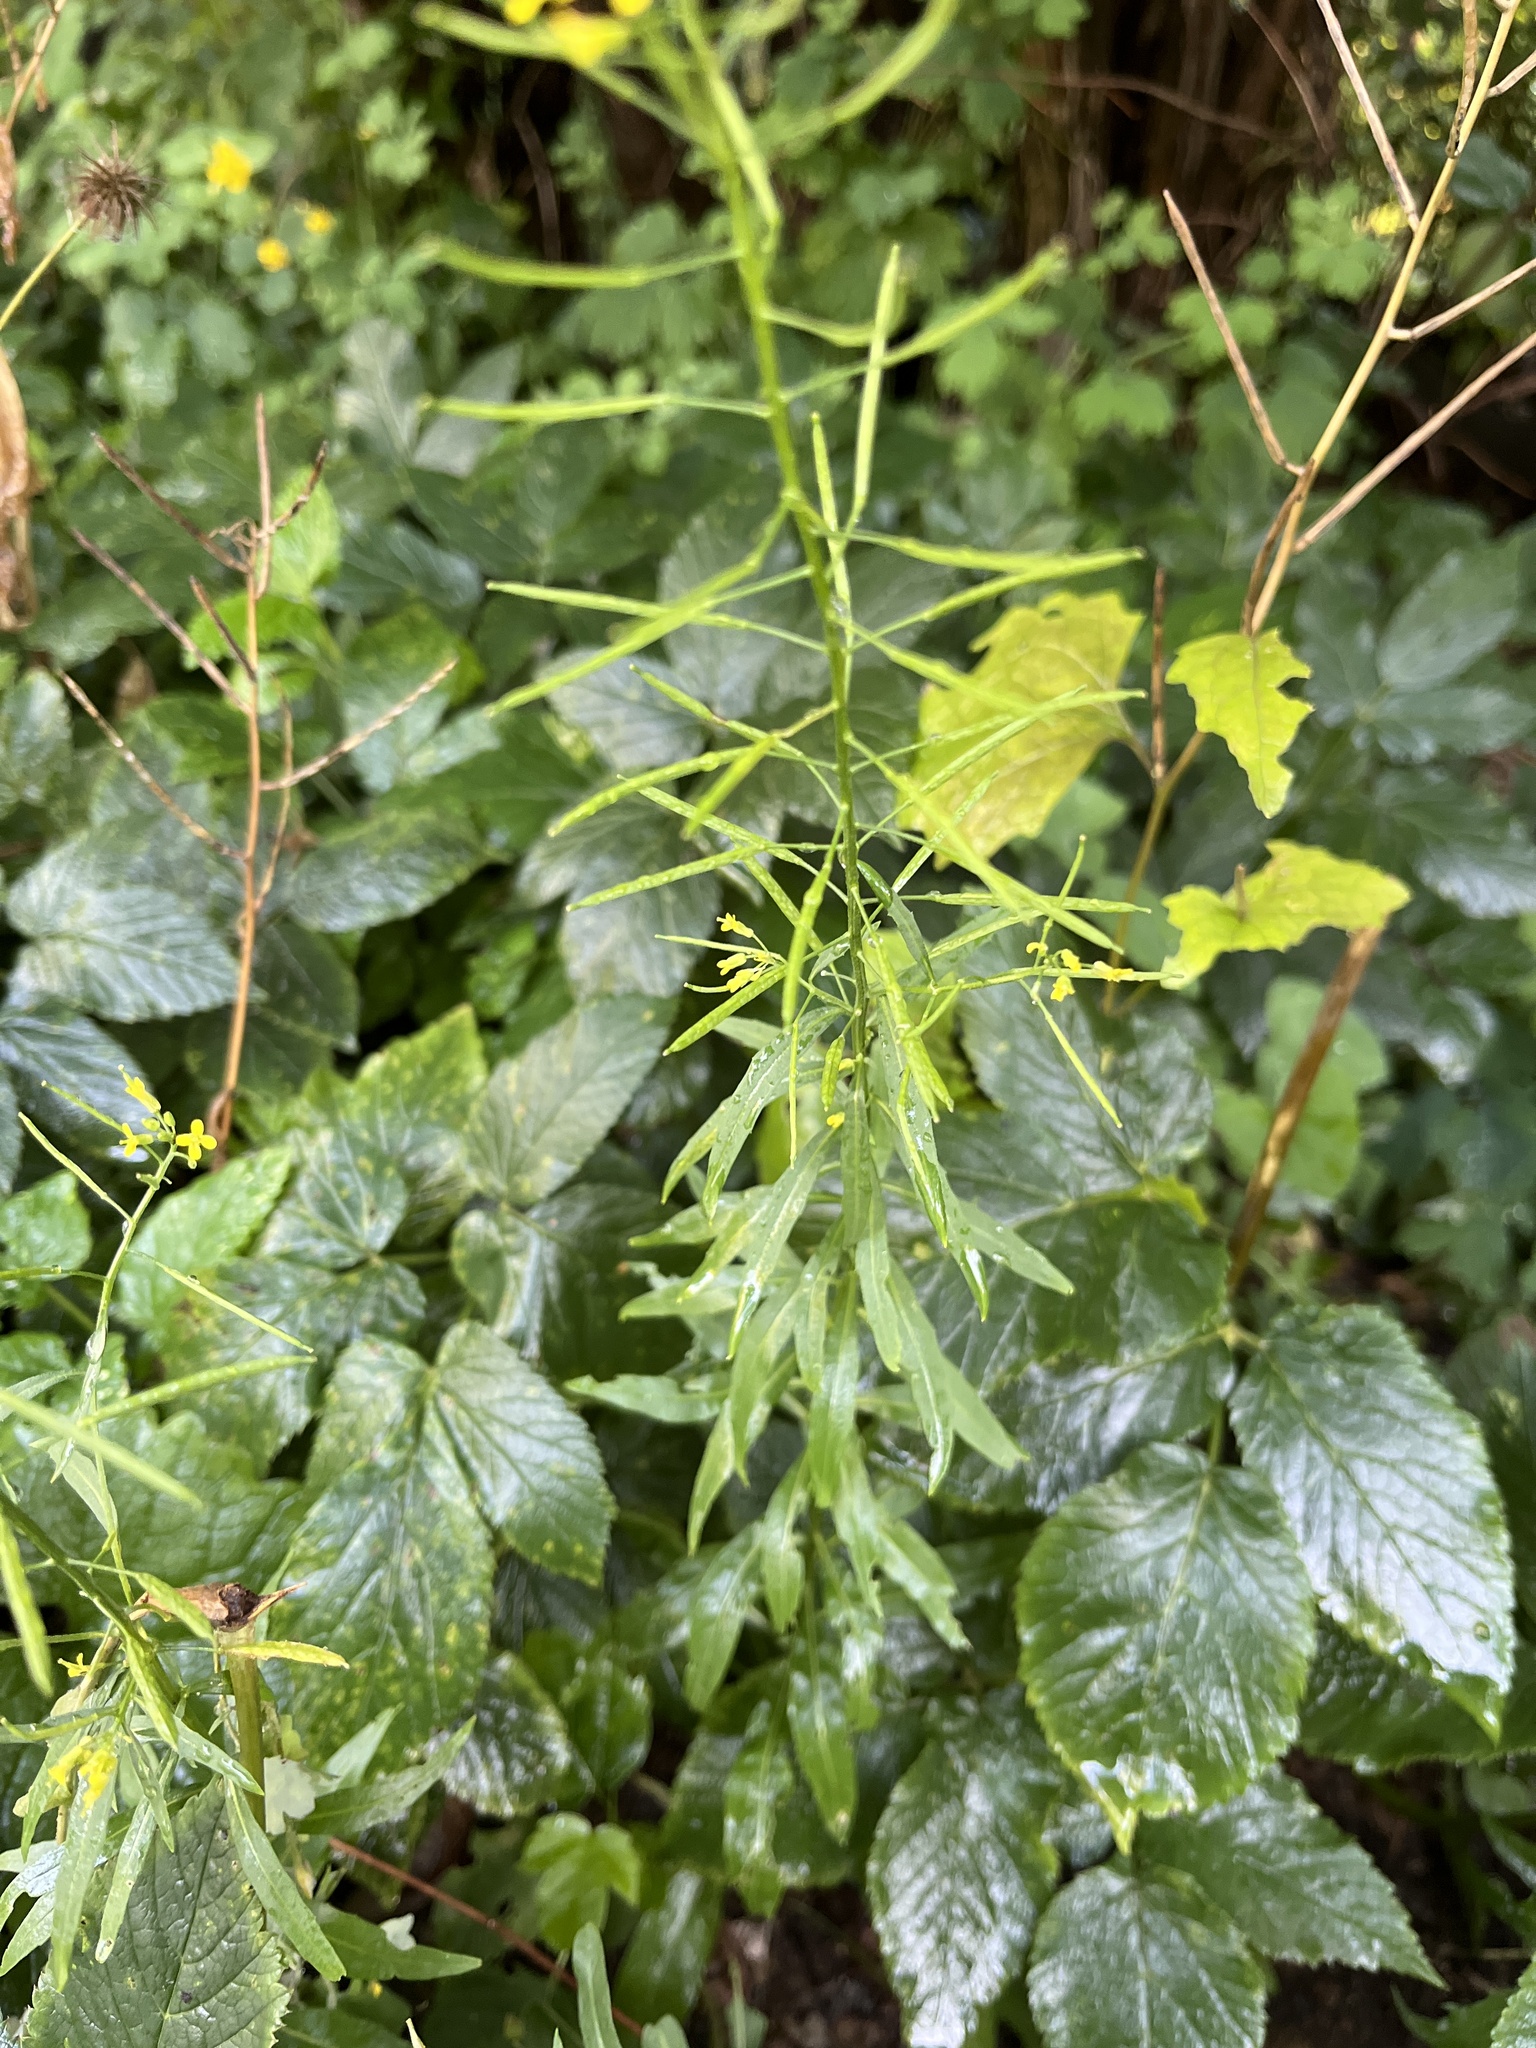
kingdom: Plantae
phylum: Tracheophyta
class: Magnoliopsida
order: Brassicales
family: Brassicaceae
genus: Erysimum
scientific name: Erysimum cheiranthoides
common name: Treacle mustard
